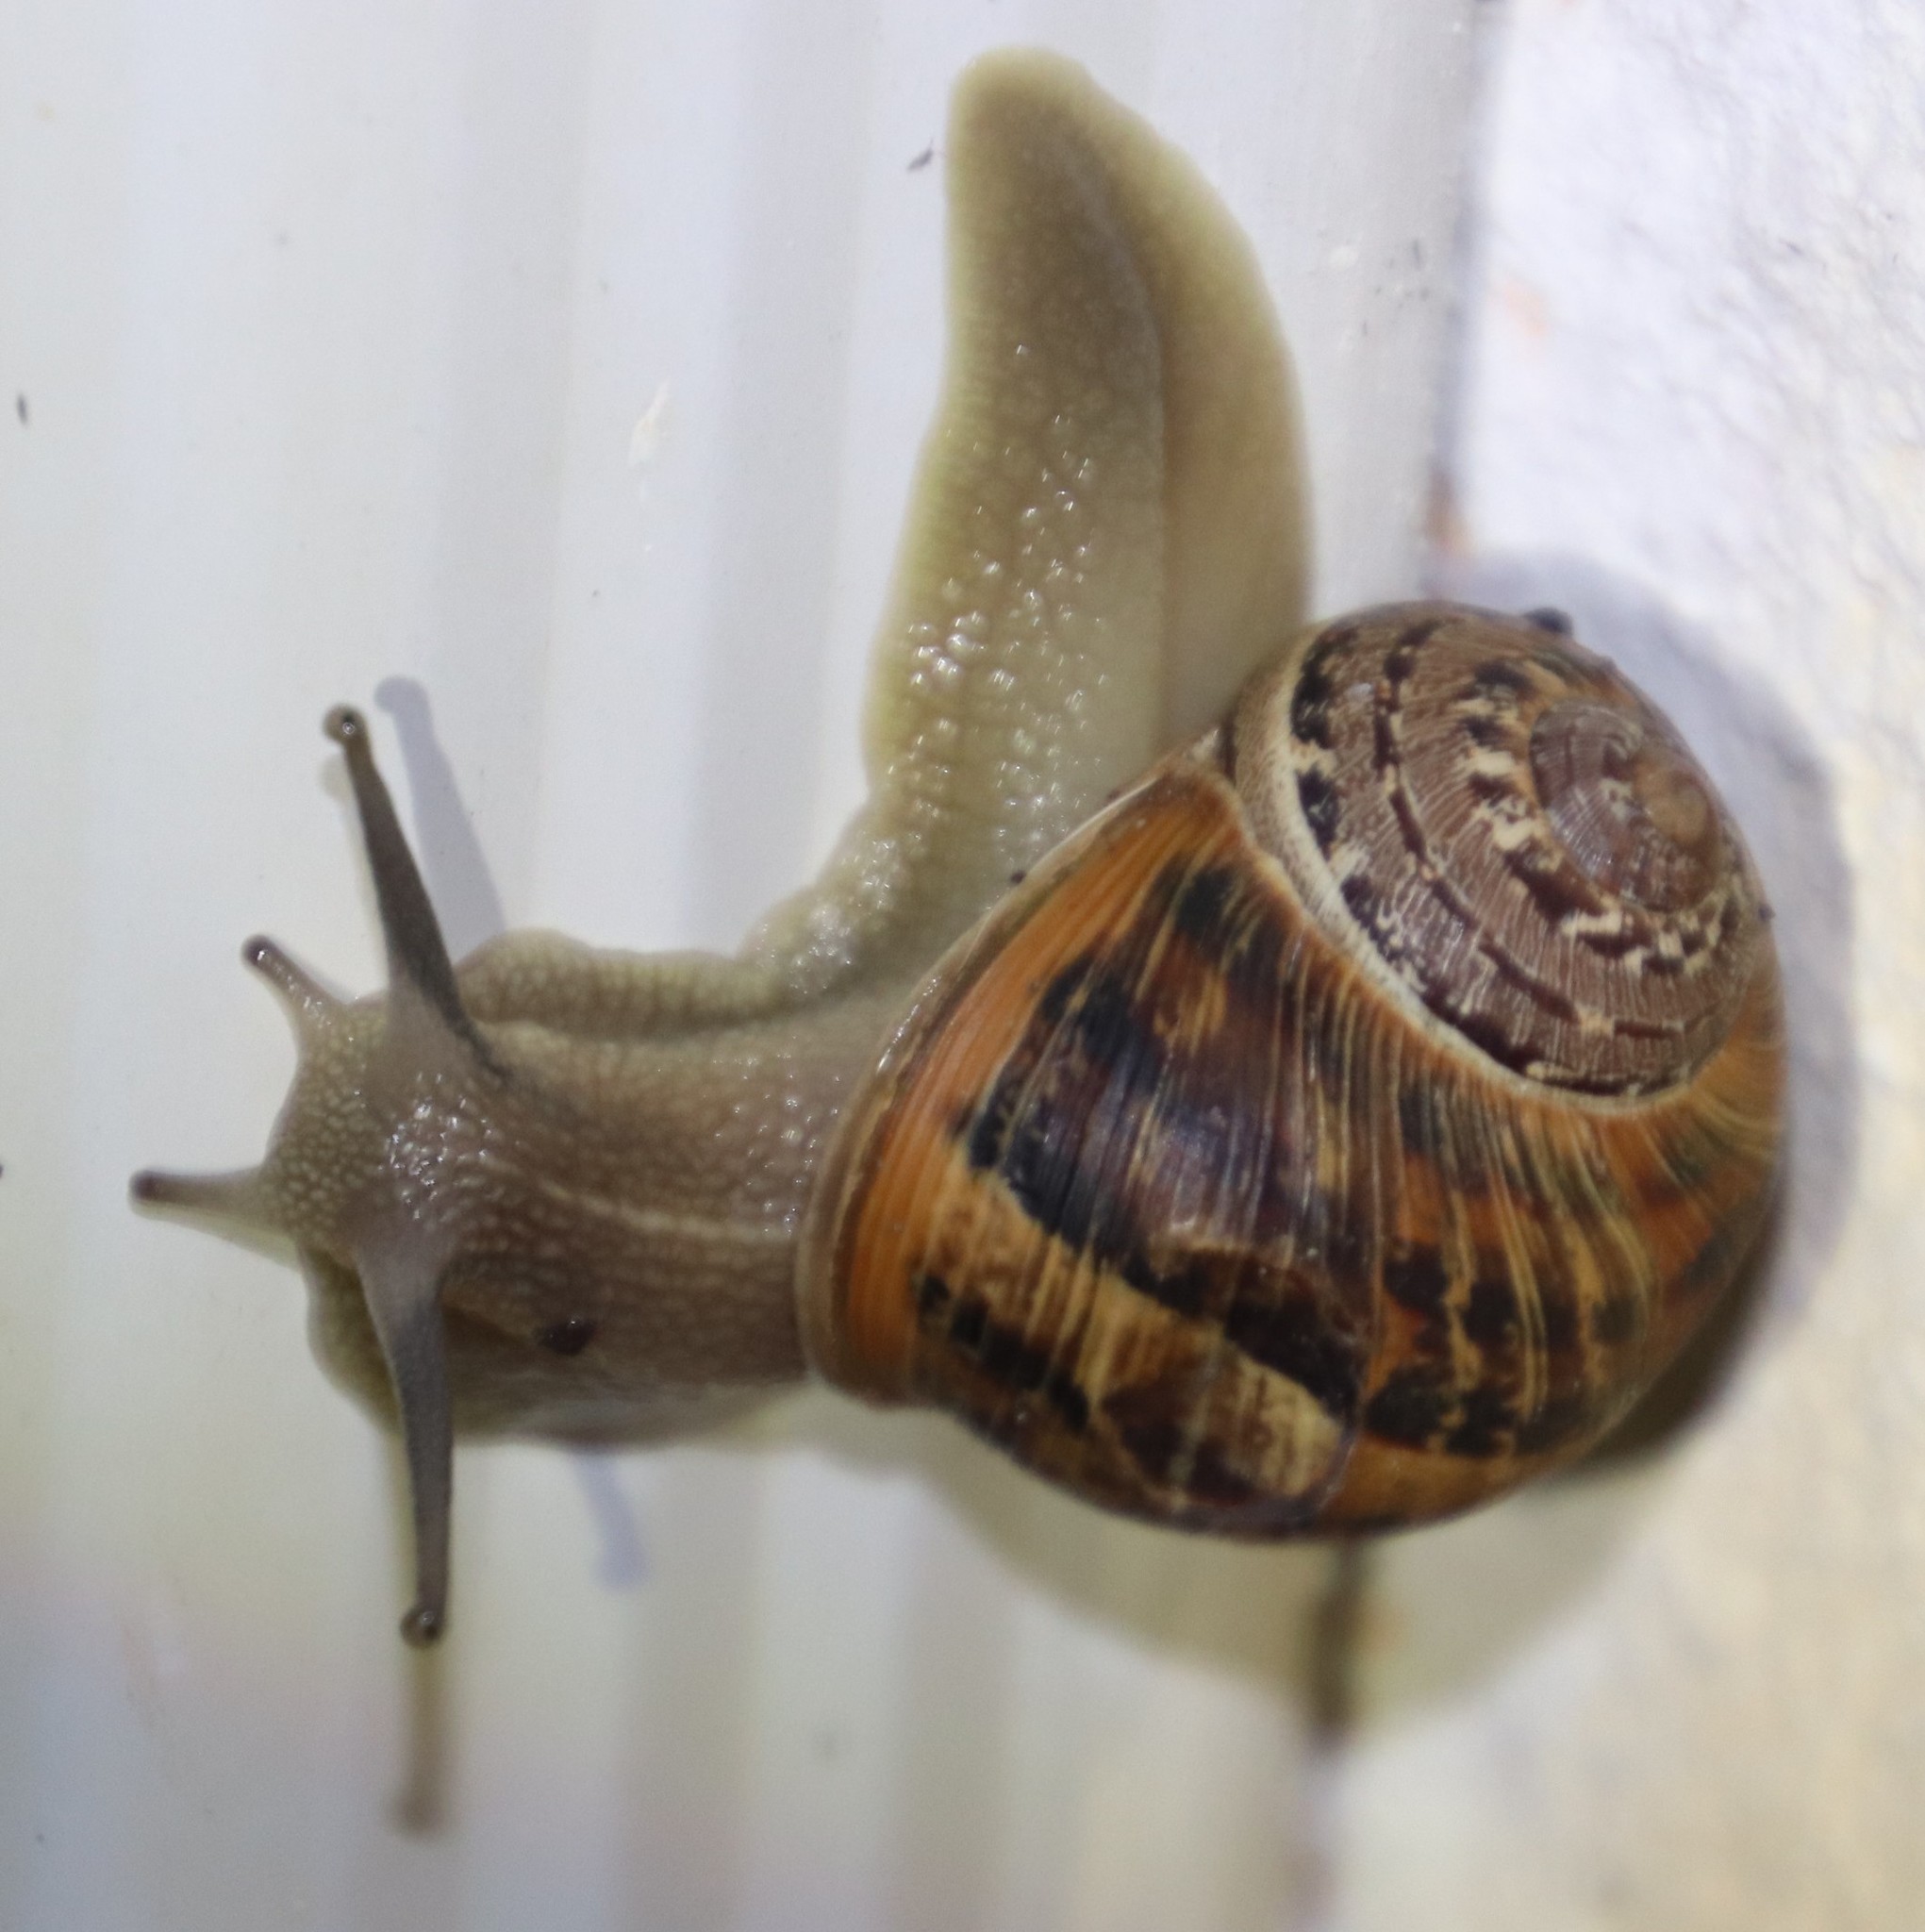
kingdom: Animalia
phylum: Mollusca
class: Gastropoda
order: Stylommatophora
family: Helicidae
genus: Cornu
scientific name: Cornu aspersum
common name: Brown garden snail
